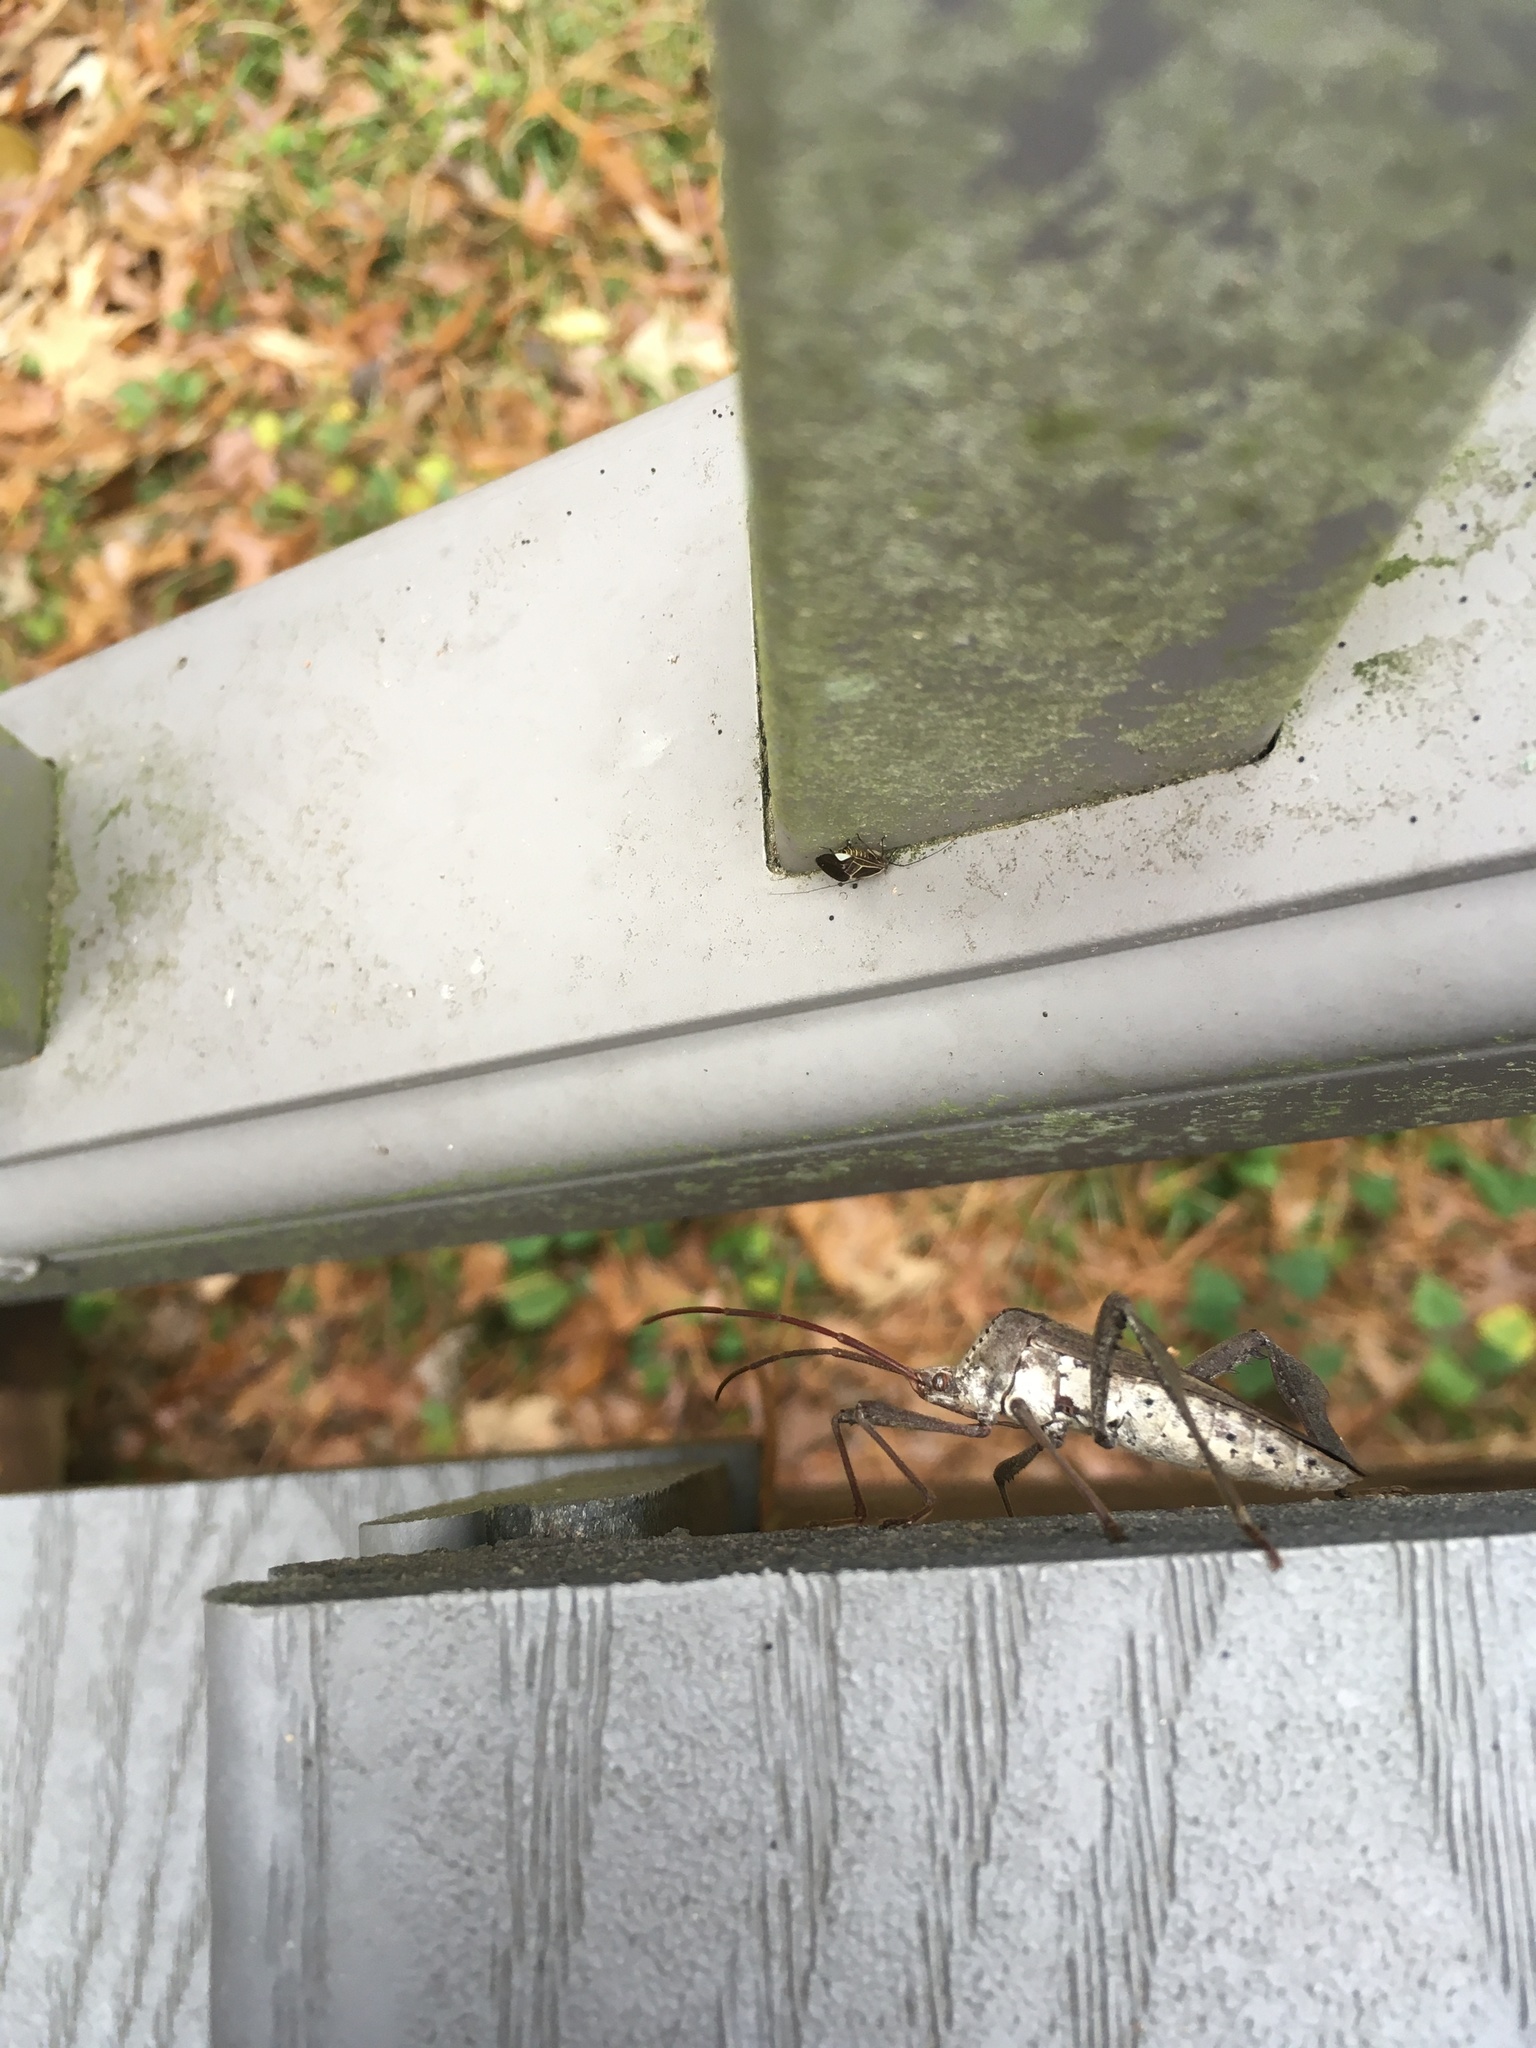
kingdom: Animalia
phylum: Arthropoda
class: Insecta
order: Hemiptera
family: Coreidae
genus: Acanthocephala
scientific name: Acanthocephala declivis
